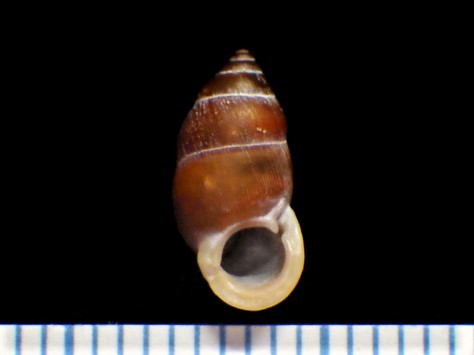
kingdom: Animalia
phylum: Mollusca
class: Gastropoda
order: Architaenioglossa
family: Pupinidae
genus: Pupinella
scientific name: Pupinella rufa
